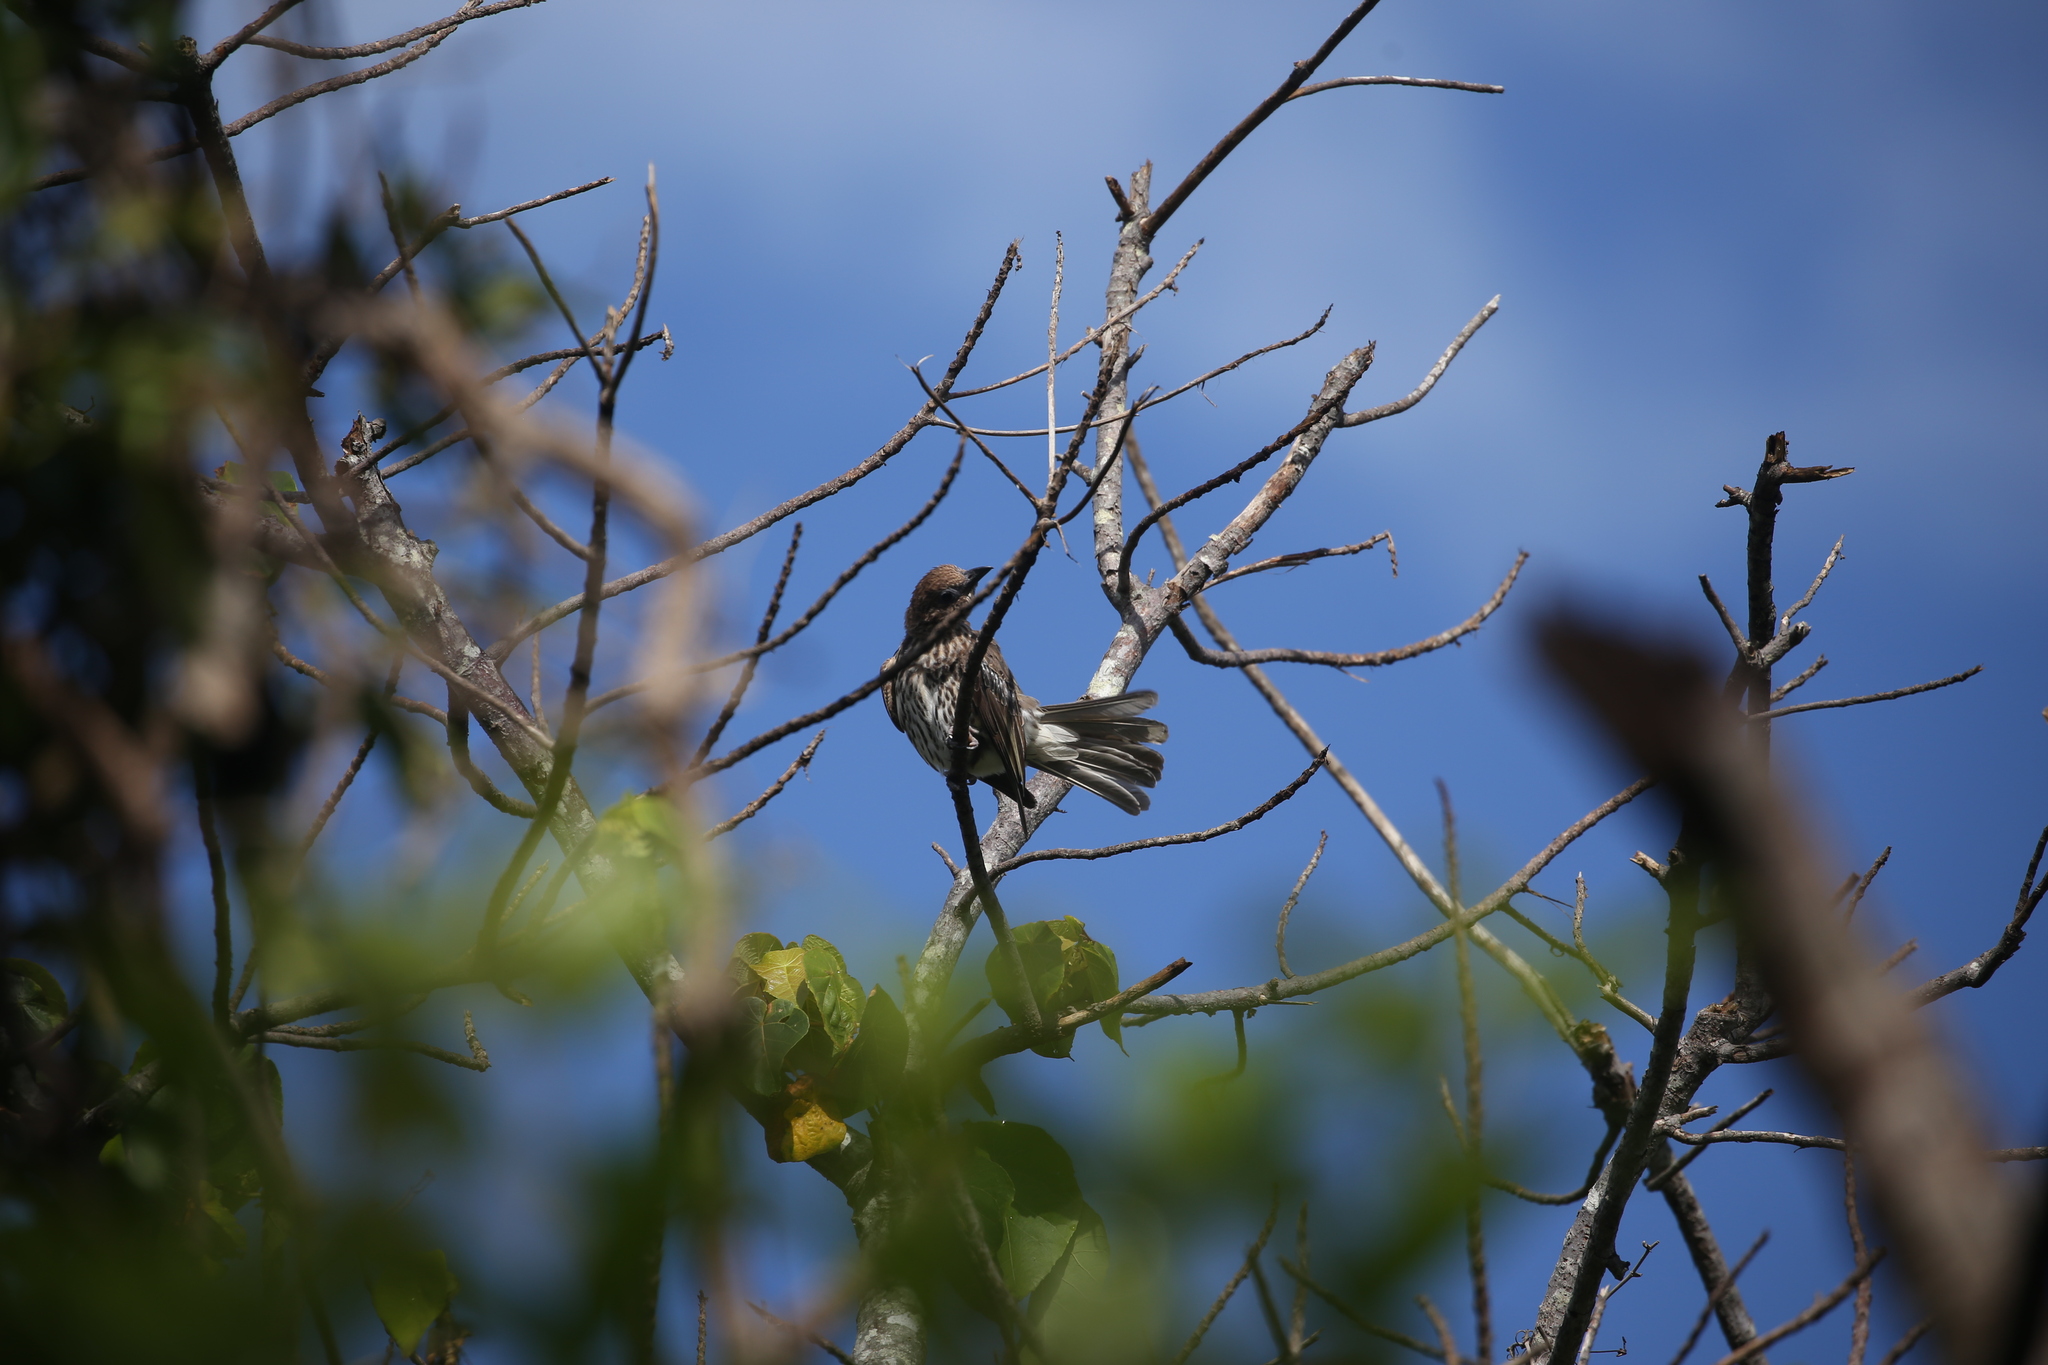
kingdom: Animalia
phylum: Chordata
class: Aves
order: Passeriformes
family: Oriolidae
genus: Sphecotheres
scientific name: Sphecotheres vieilloti
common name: Australasian figbird
